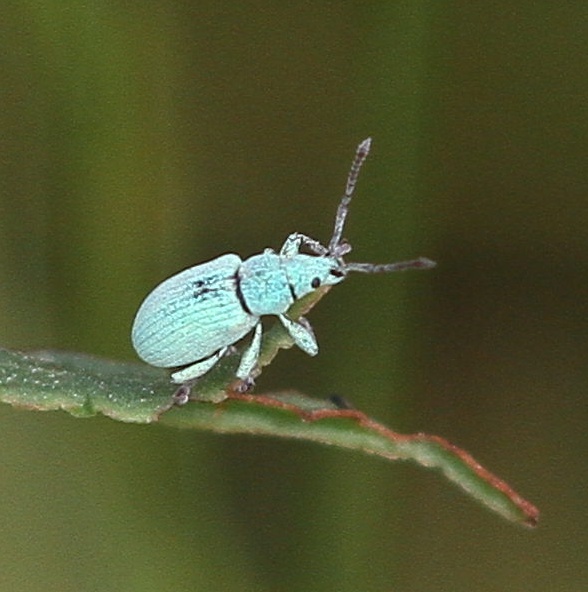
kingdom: Animalia
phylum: Arthropoda
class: Insecta
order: Coleoptera
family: Curculionidae
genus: Phyllobius
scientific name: Phyllobius virideaeris
